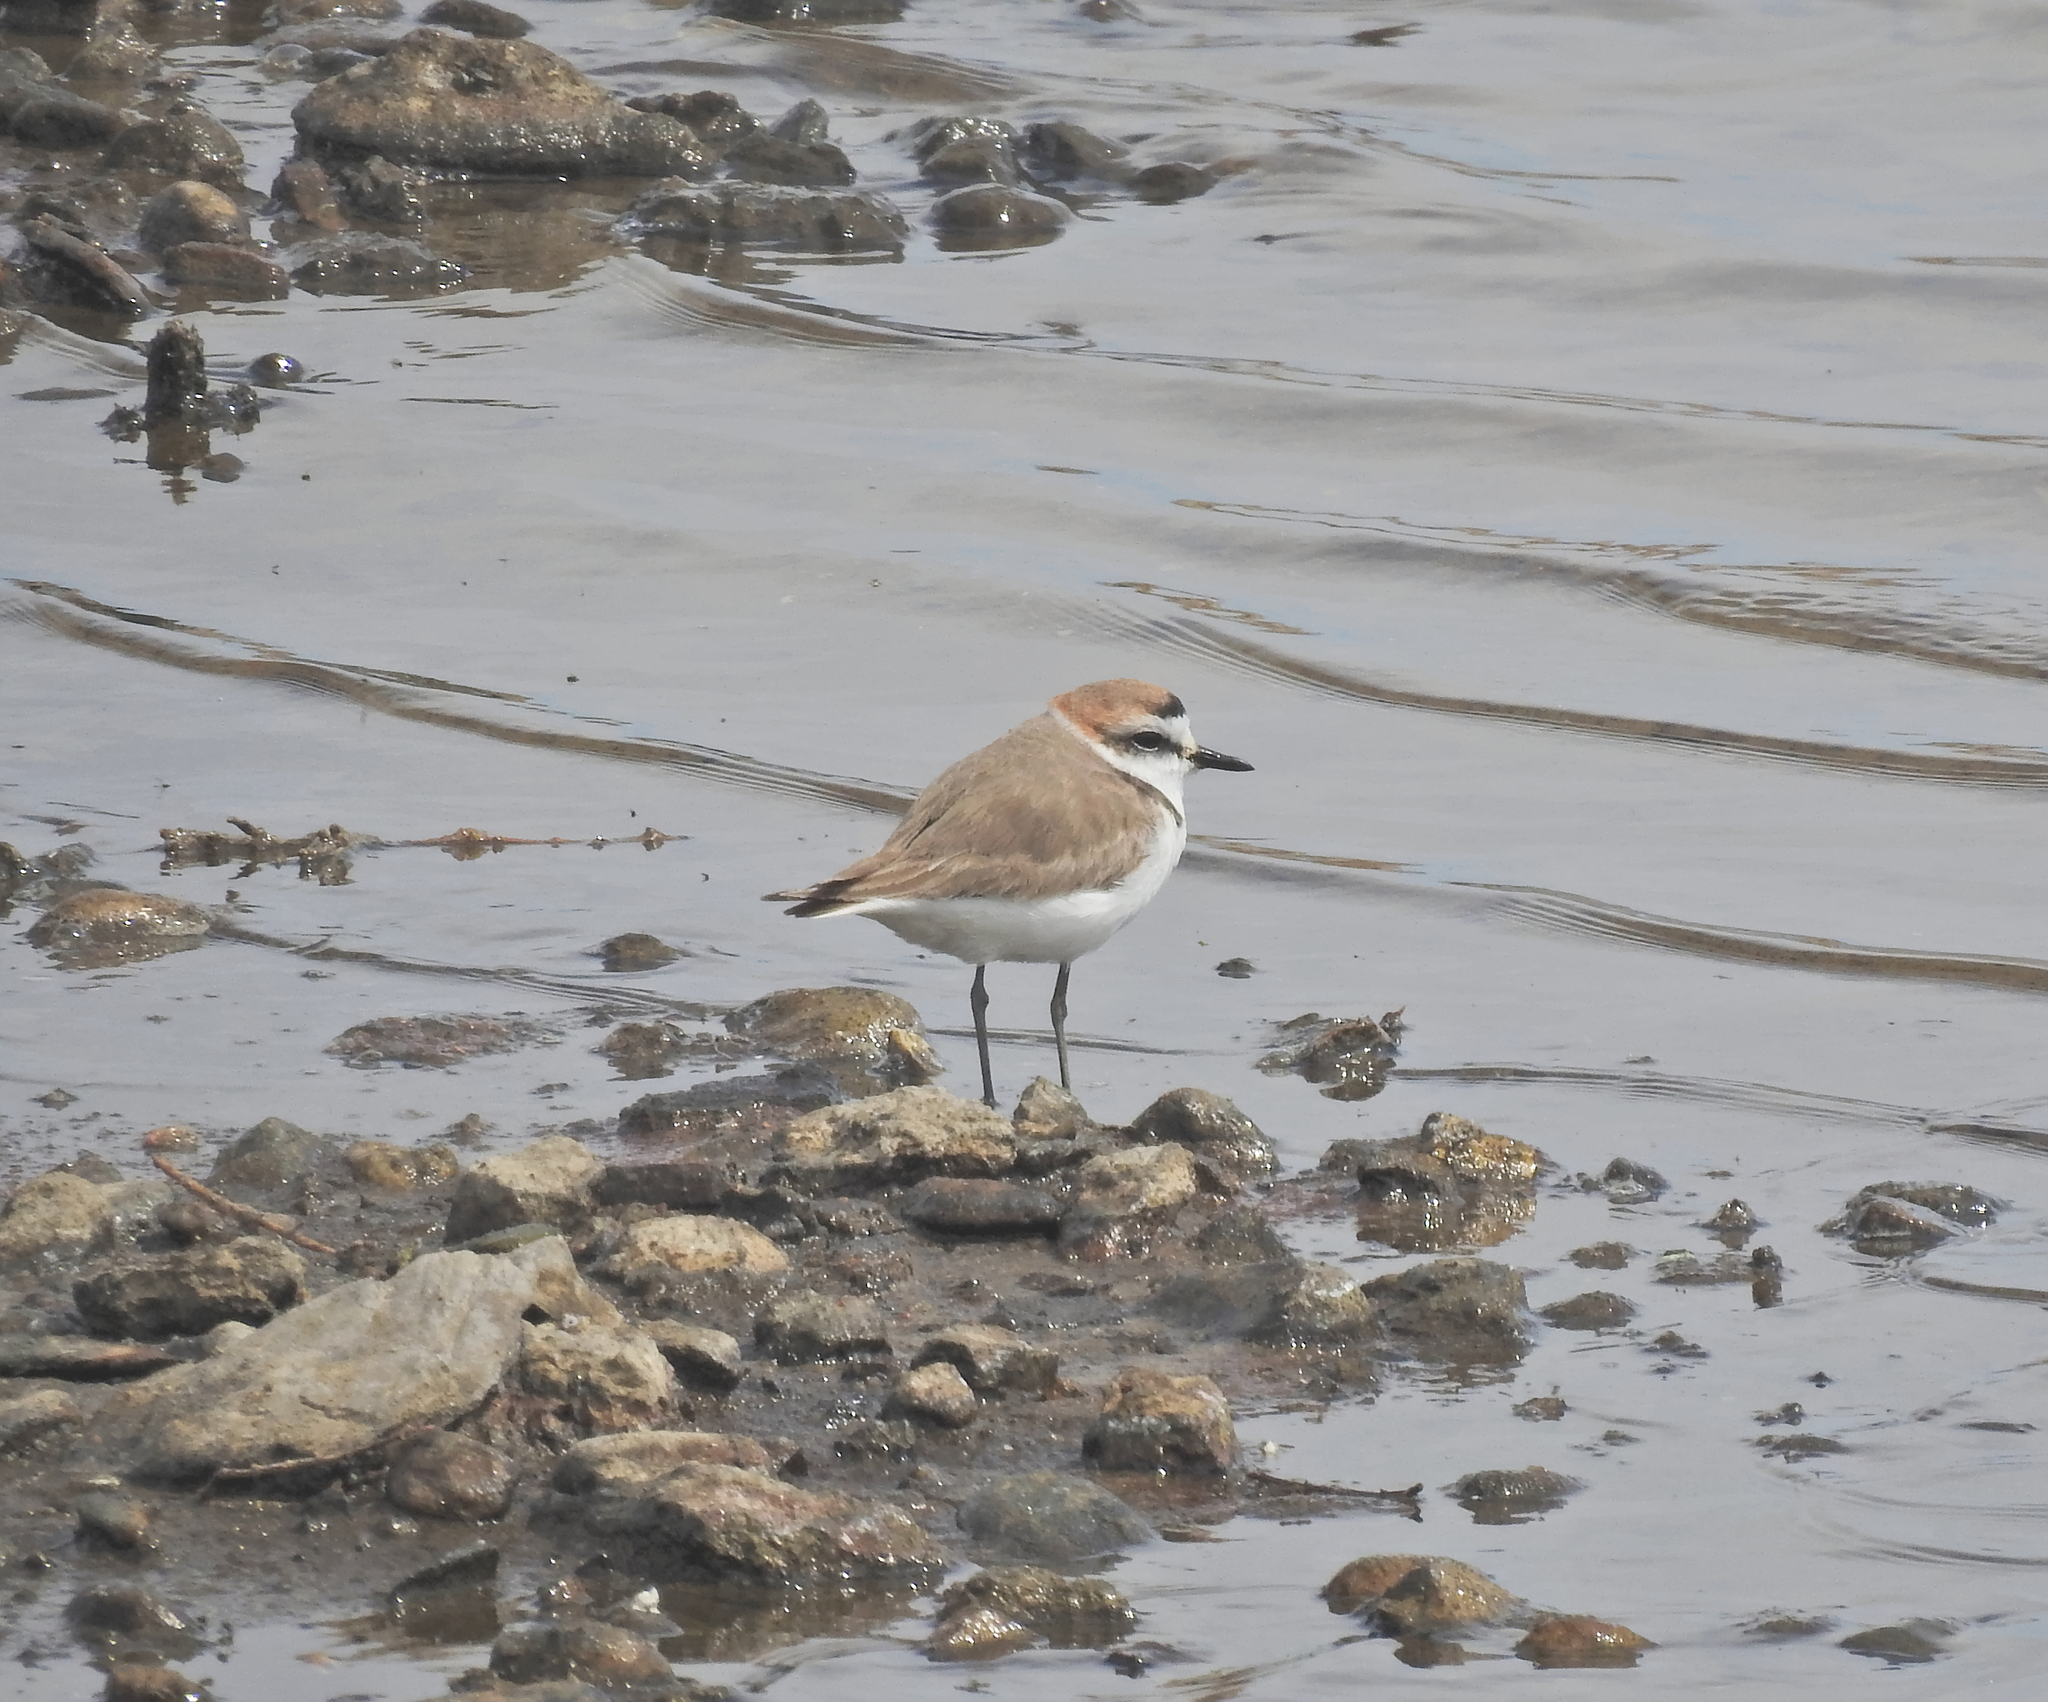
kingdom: Animalia
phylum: Chordata
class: Aves
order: Charadriiformes
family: Charadriidae
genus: Charadrius
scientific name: Charadrius alexandrinus
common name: Kentish plover
